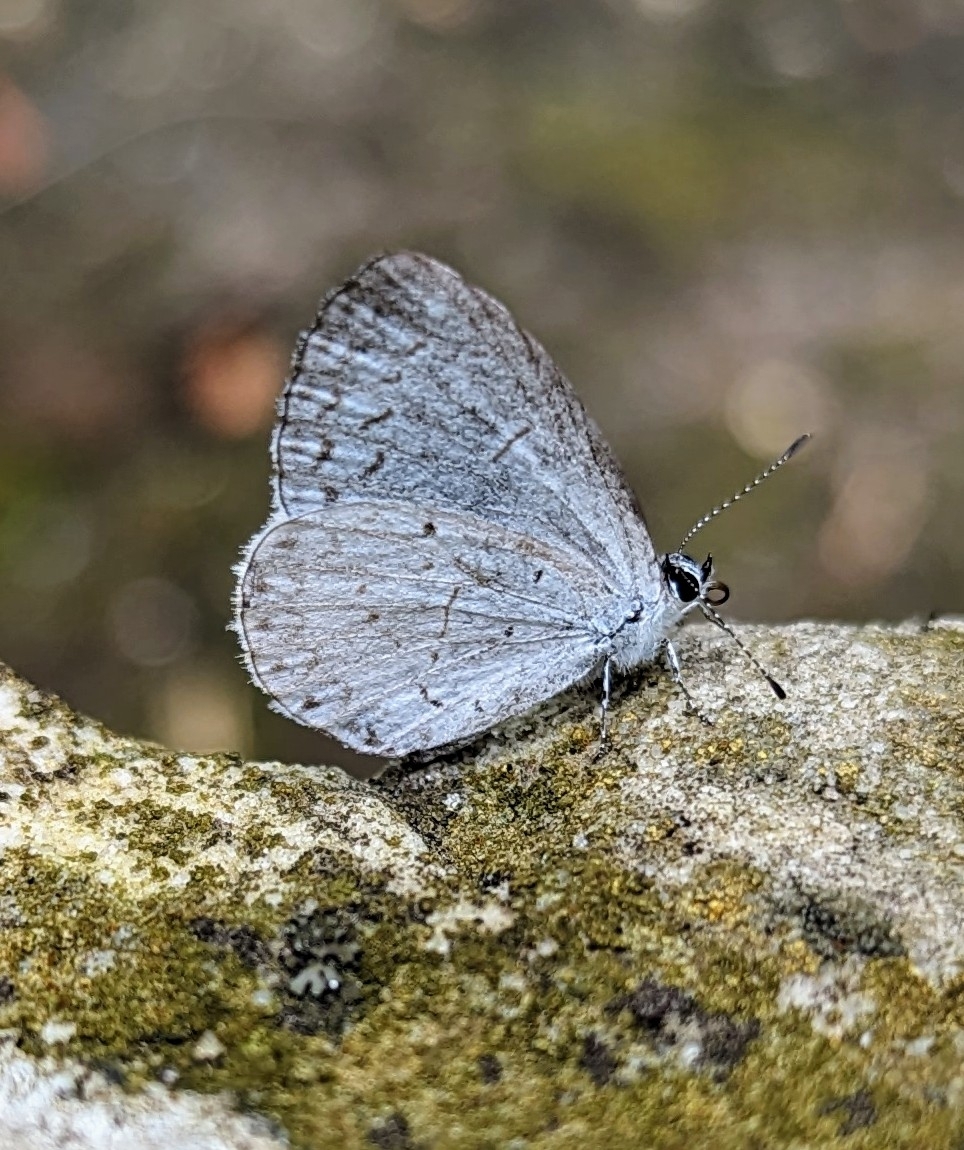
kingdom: Animalia
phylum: Arthropoda
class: Insecta
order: Lepidoptera
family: Lycaenidae
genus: Cyaniris
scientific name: Cyaniris neglecta
